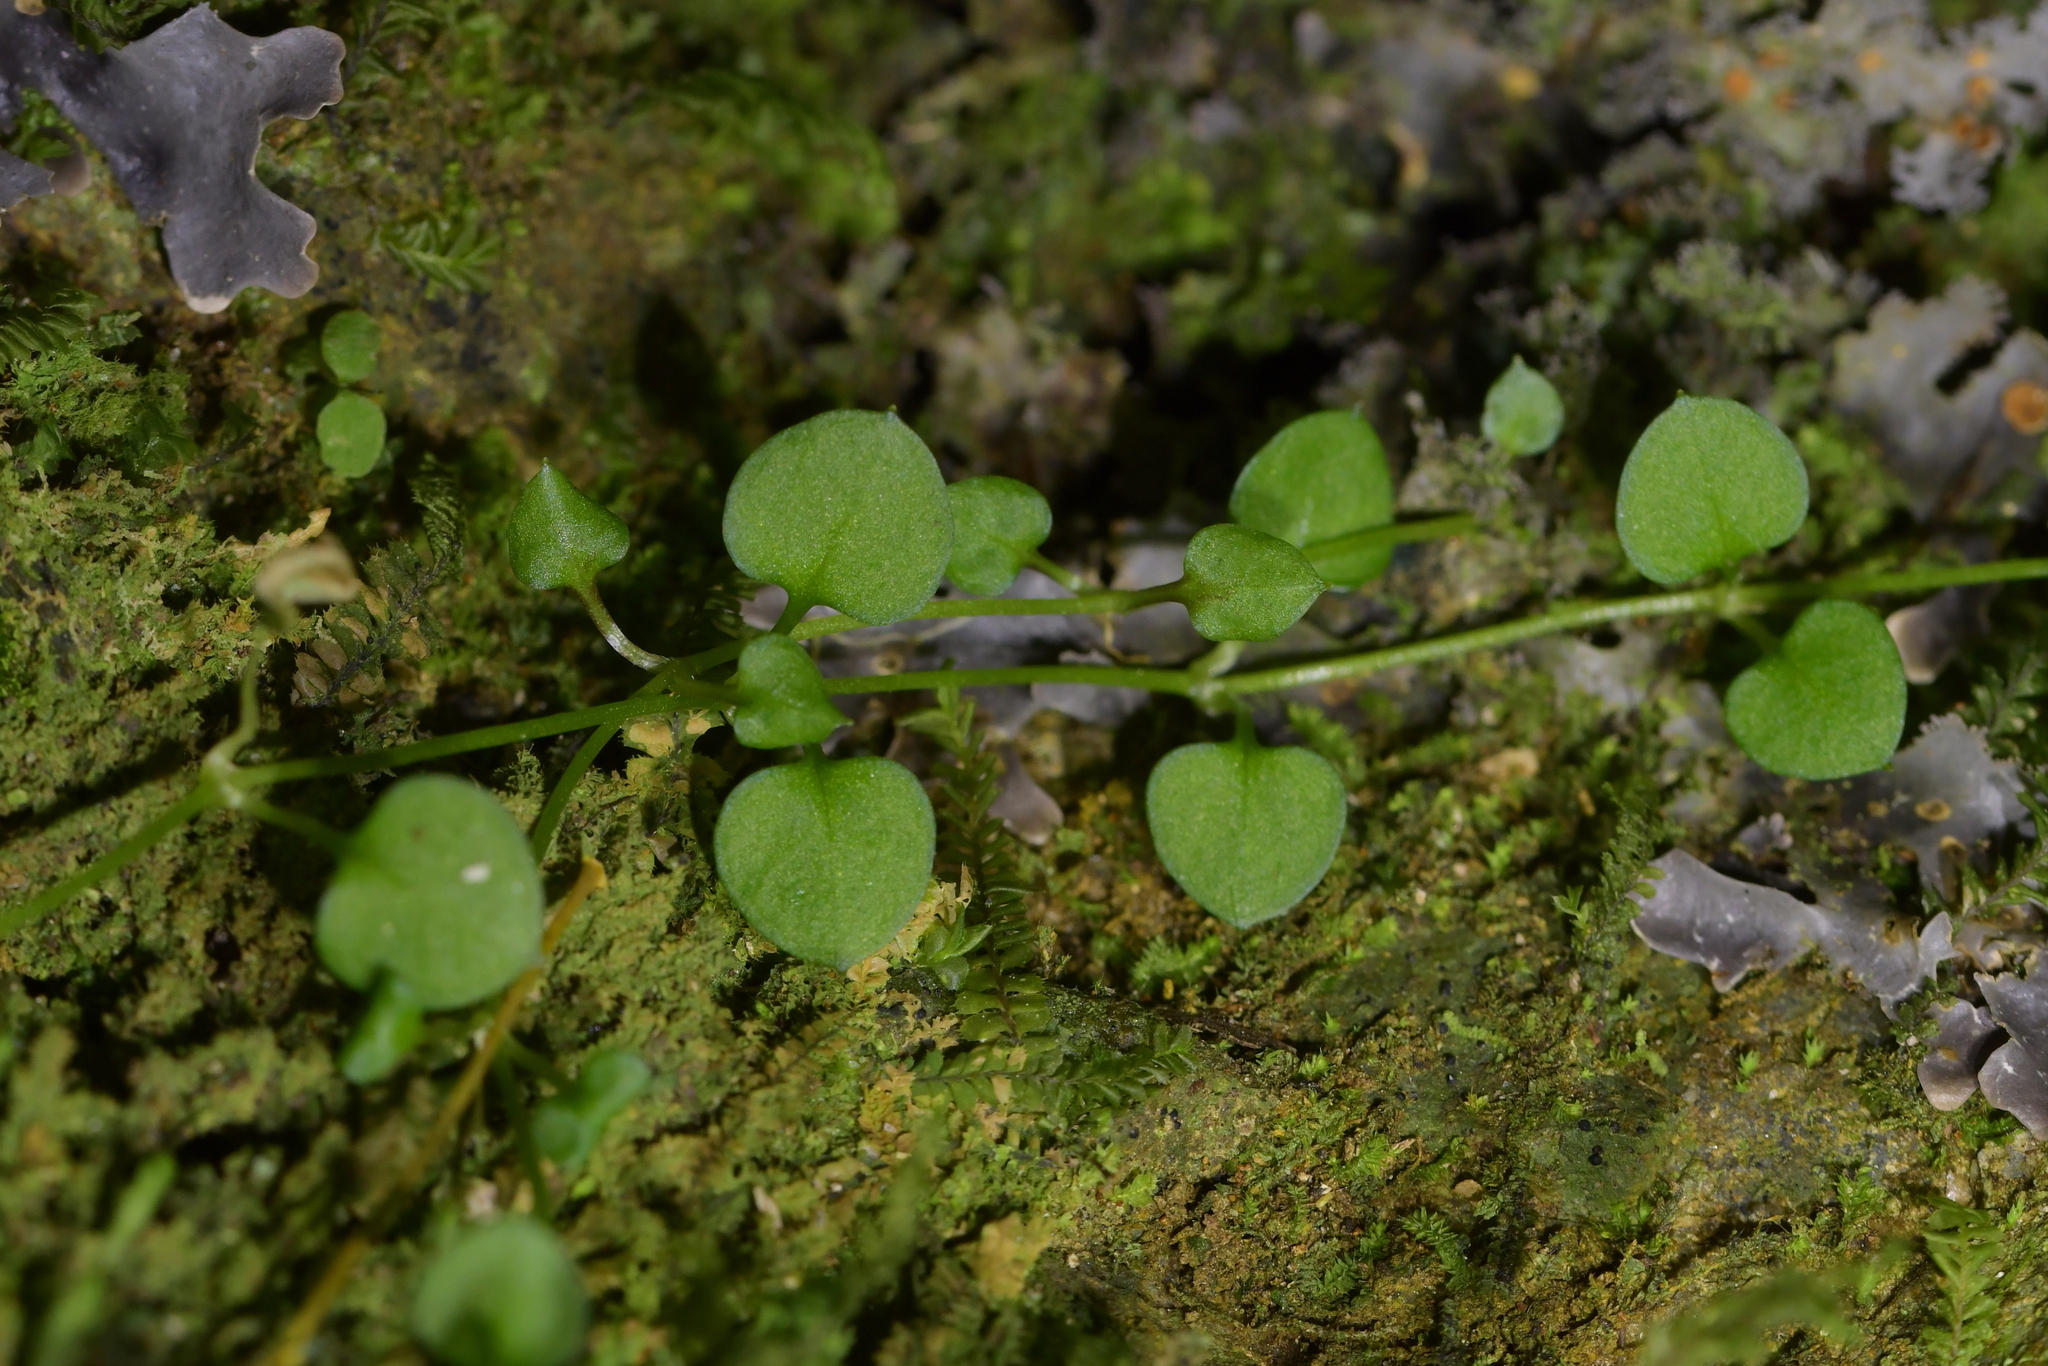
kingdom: Plantae
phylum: Tracheophyta
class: Magnoliopsida
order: Caryophyllales
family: Caryophyllaceae
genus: Stellaria
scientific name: Stellaria parviflora
